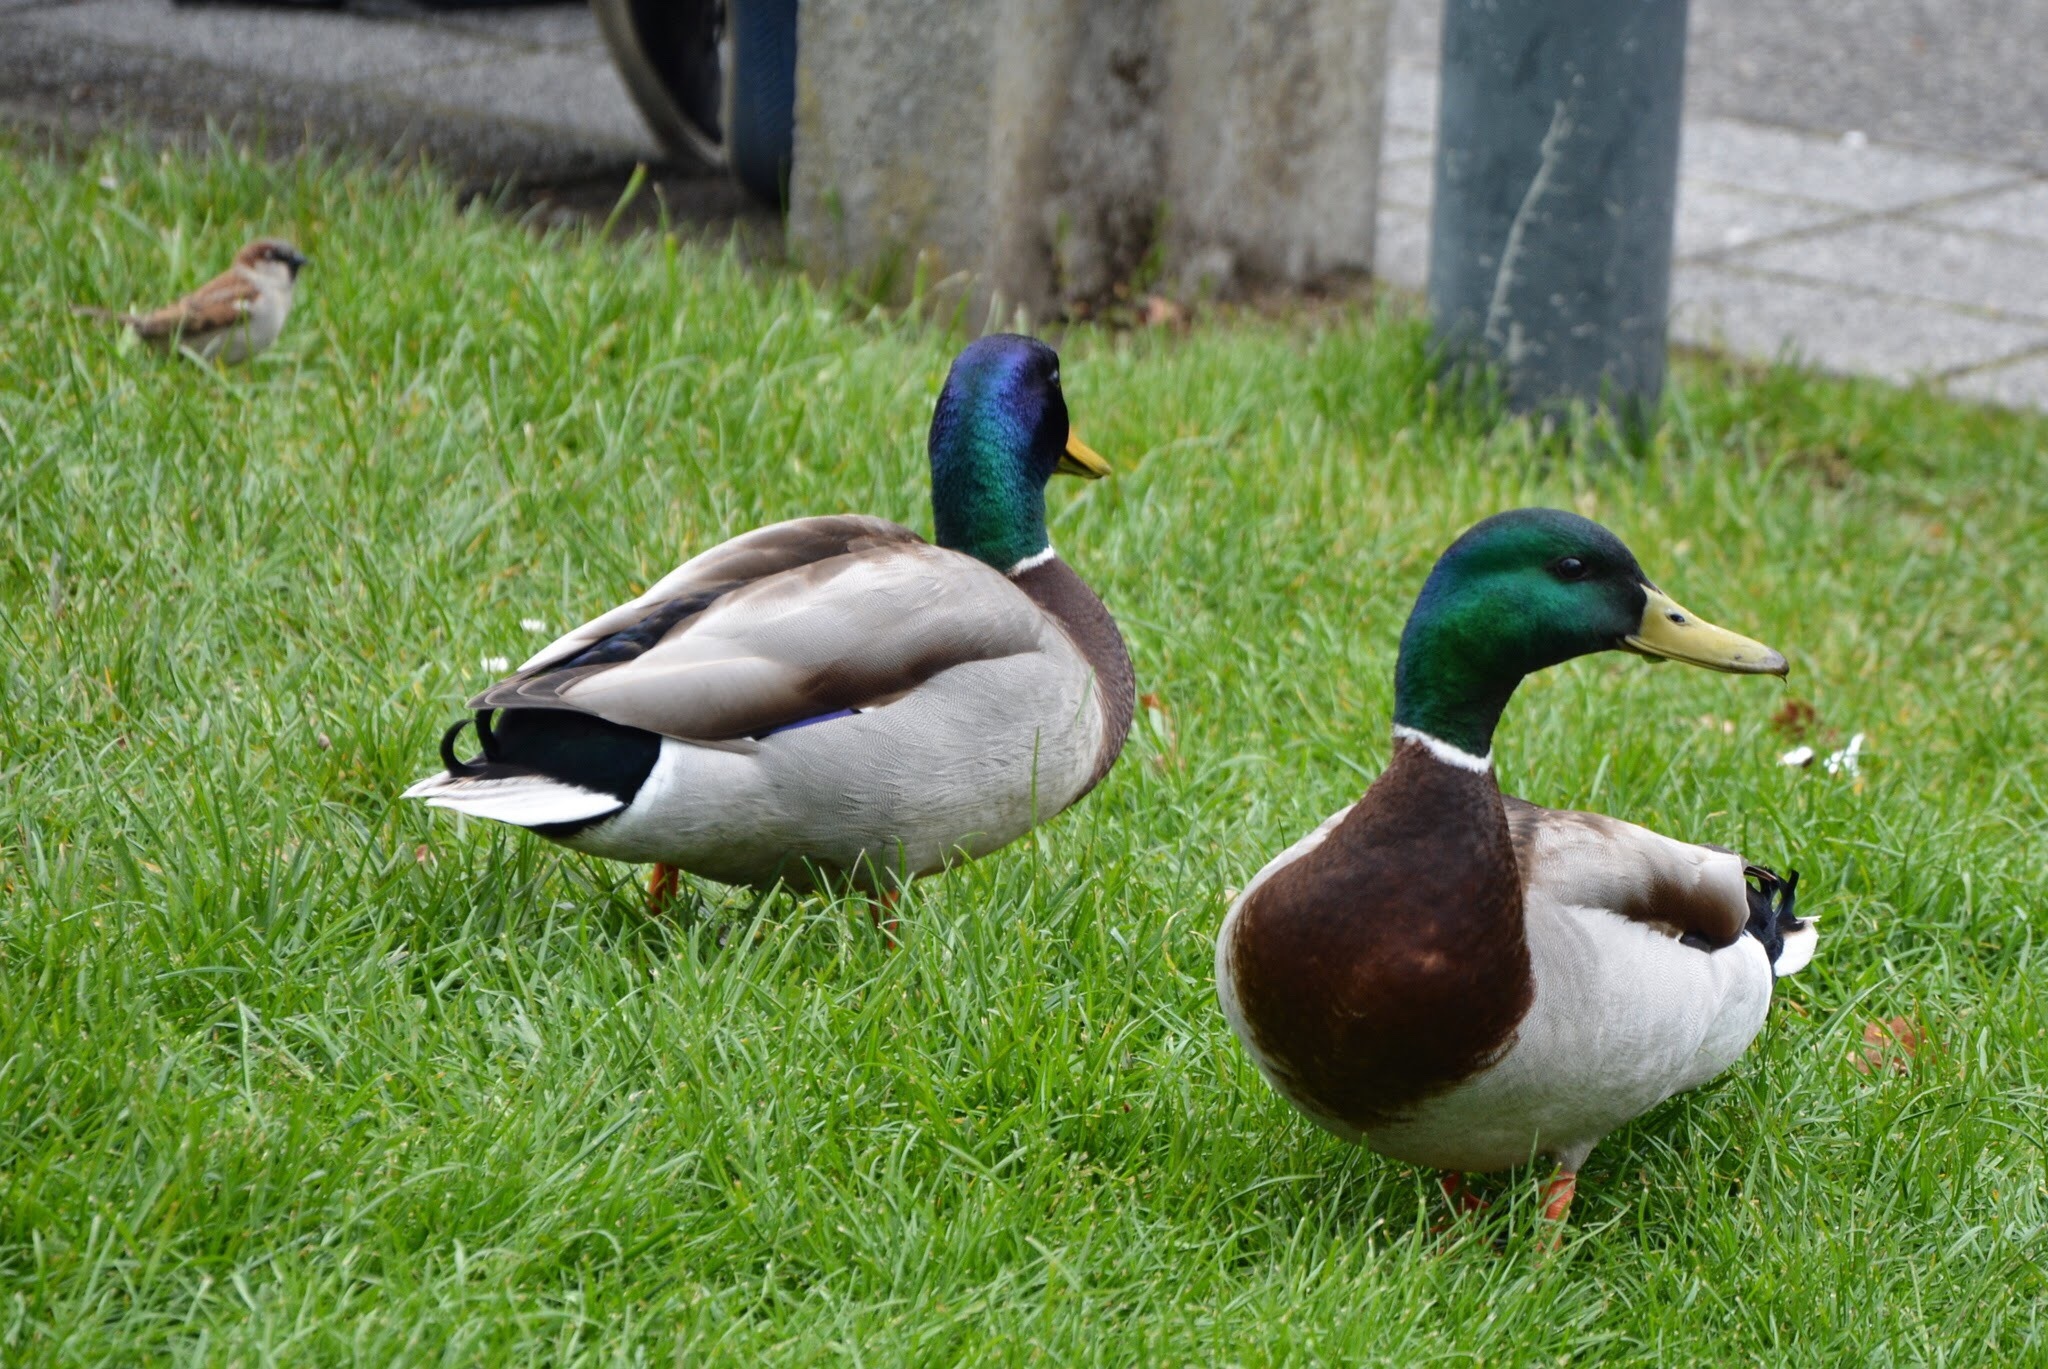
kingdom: Animalia
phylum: Chordata
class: Aves
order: Anseriformes
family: Anatidae
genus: Anas
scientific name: Anas platyrhynchos
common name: Mallard
